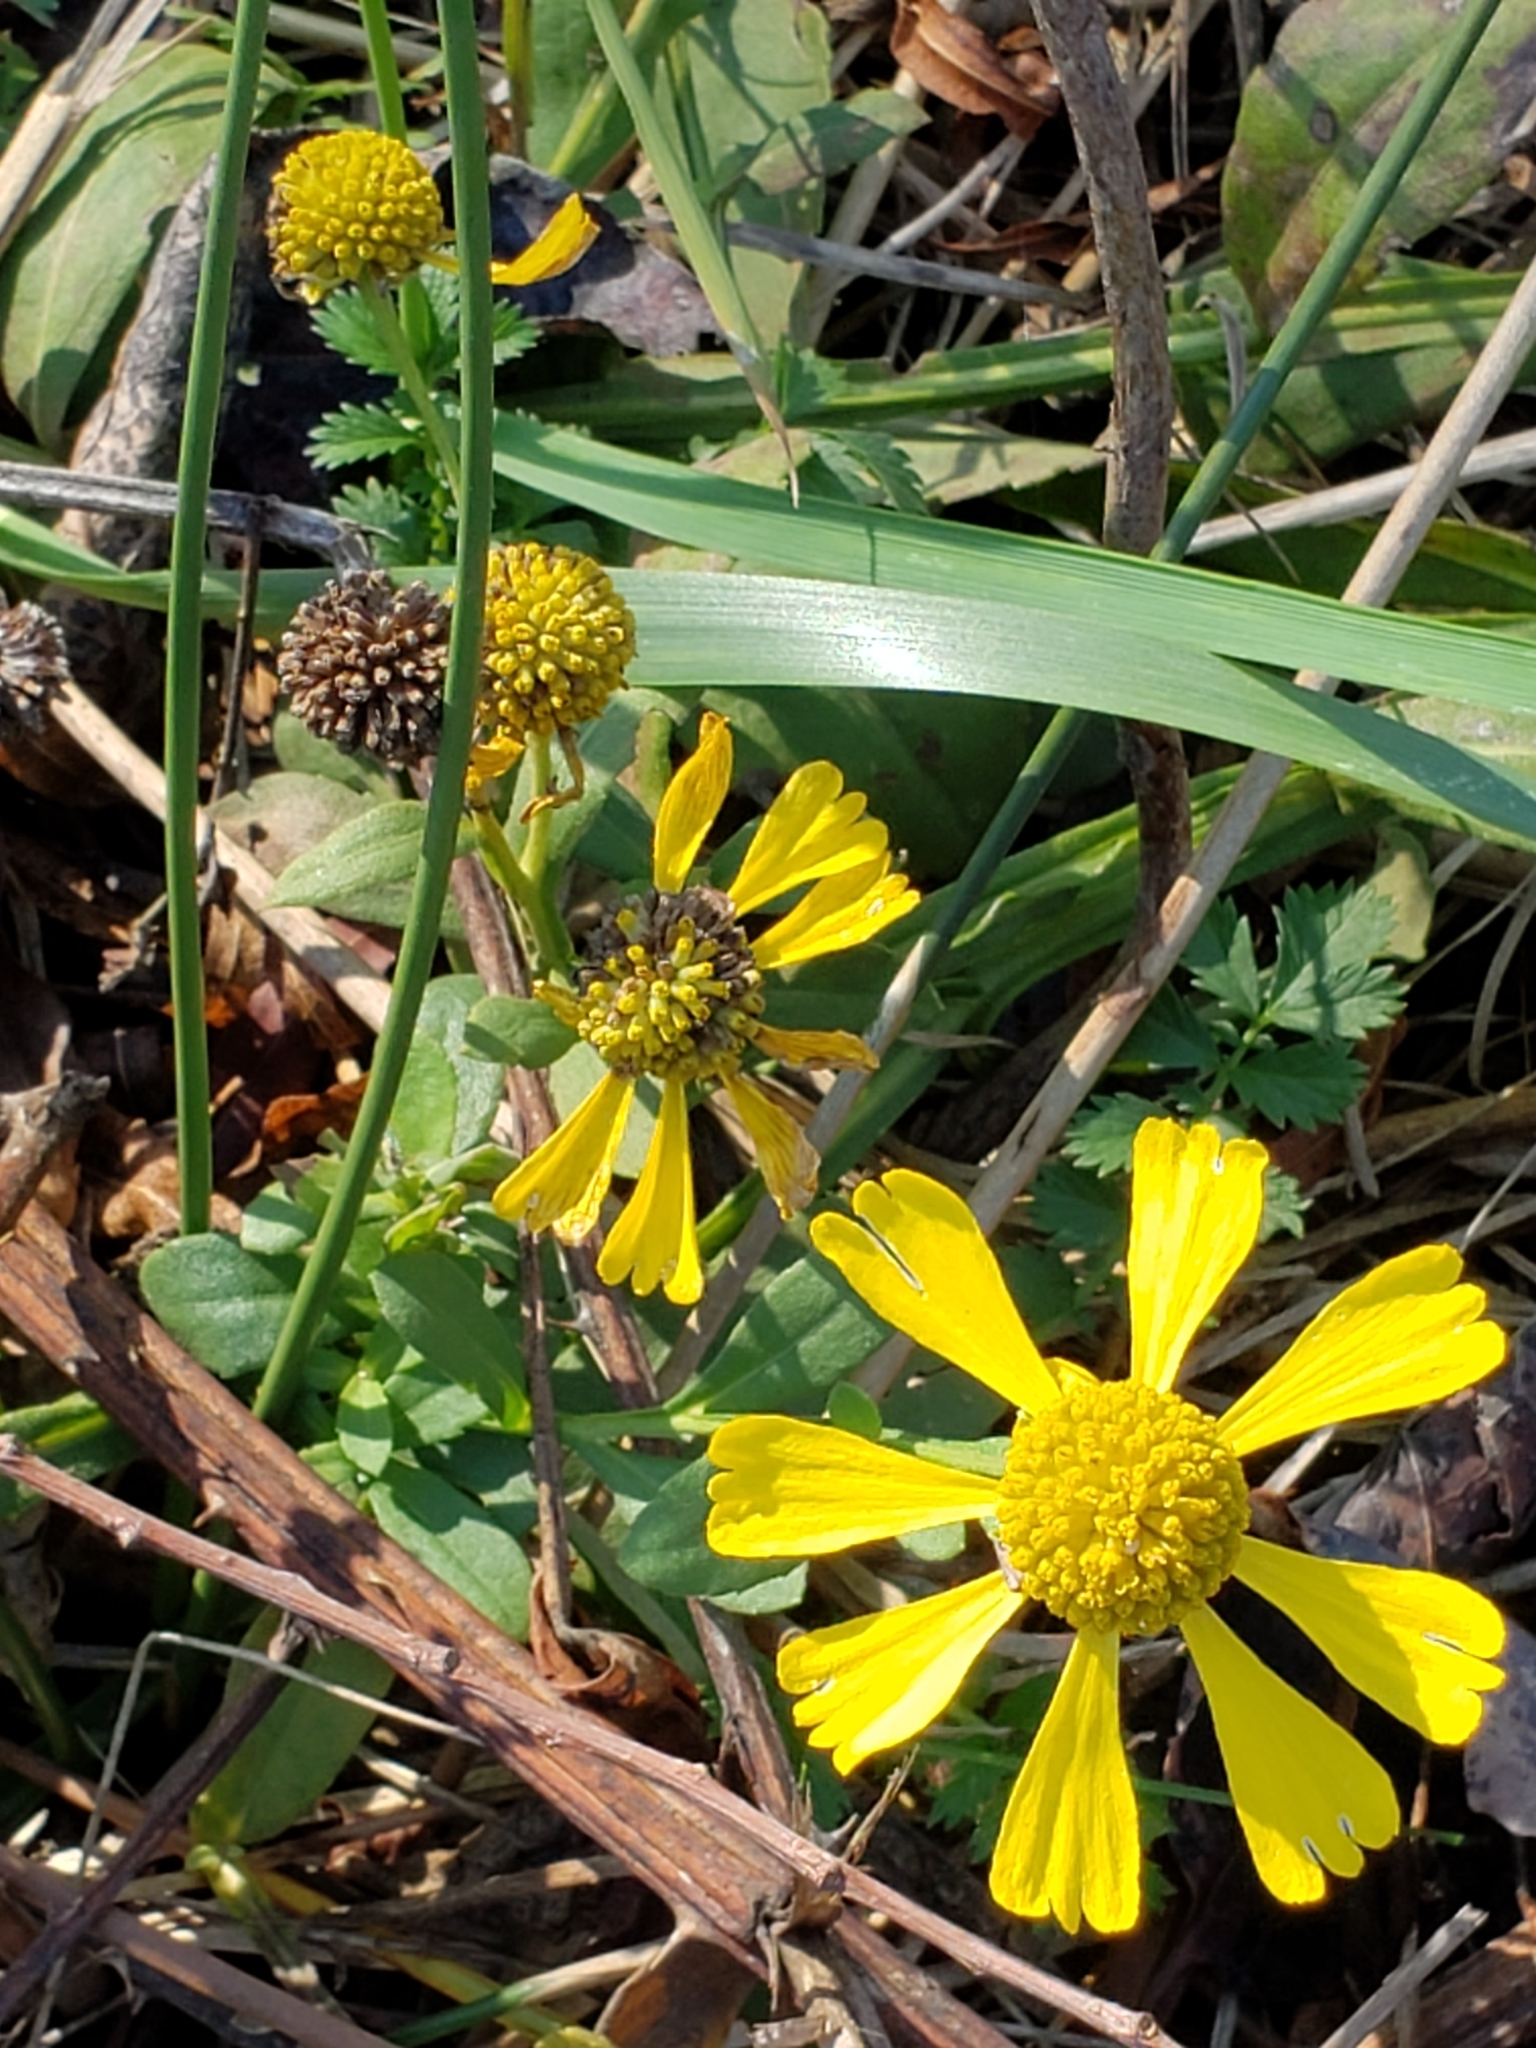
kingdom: Plantae
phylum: Tracheophyta
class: Magnoliopsida
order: Asterales
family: Asteraceae
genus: Helenium
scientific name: Helenium autumnale
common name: Sneezeweed
